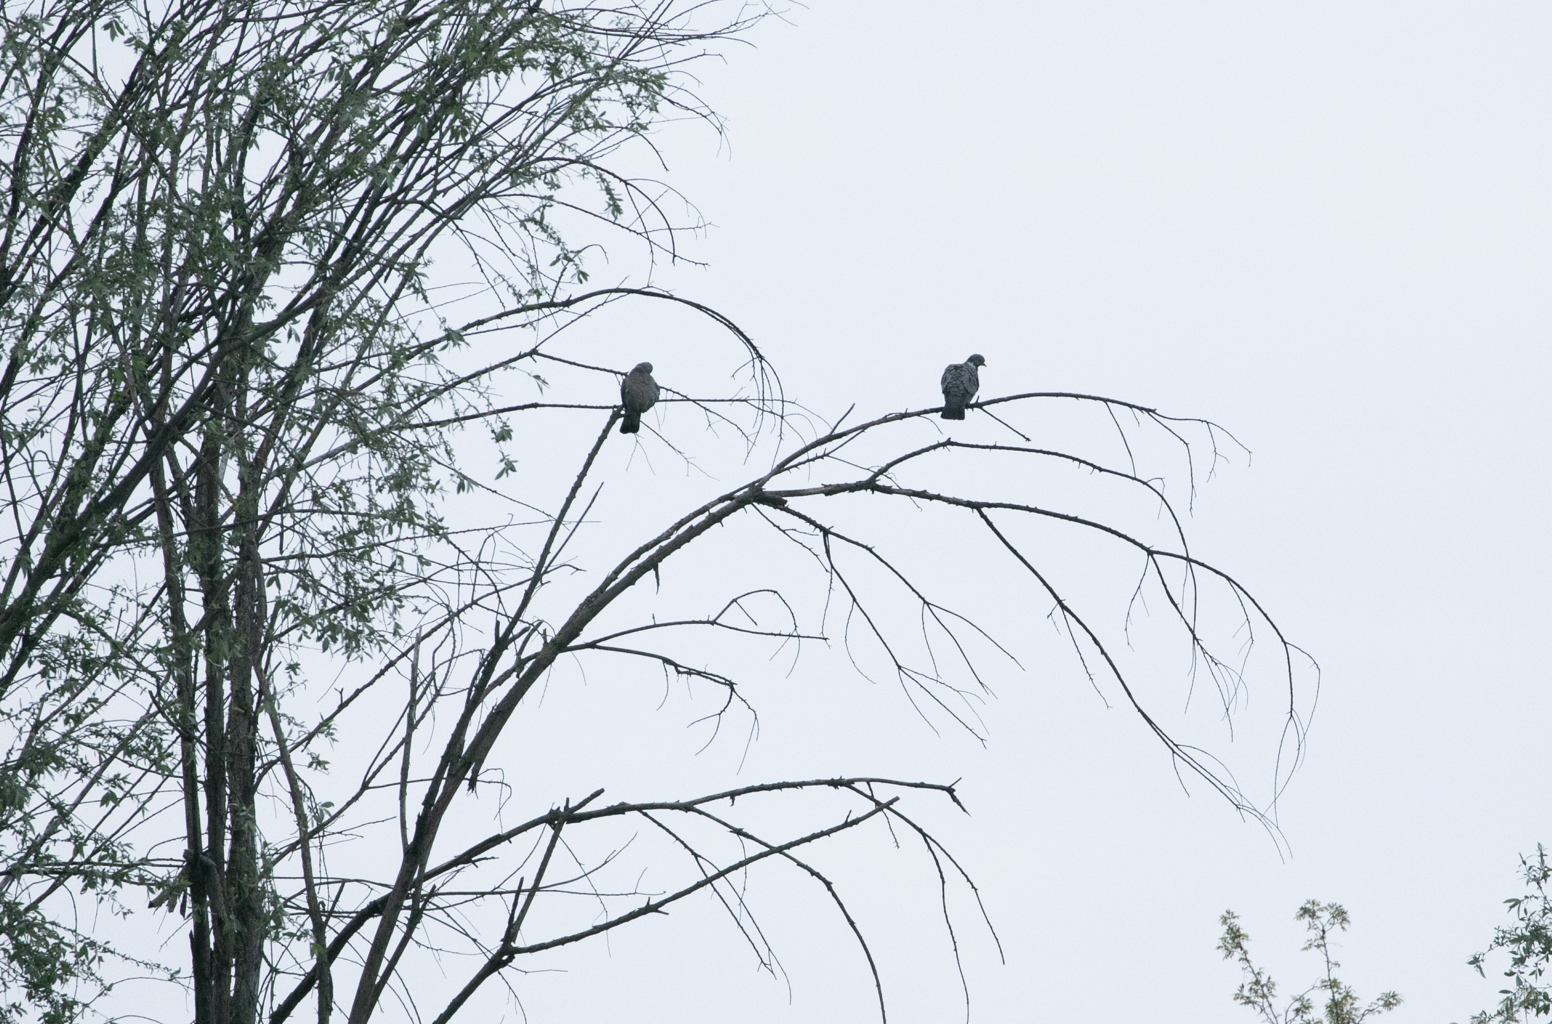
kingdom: Animalia
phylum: Chordata
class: Aves
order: Columbiformes
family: Columbidae
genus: Columba
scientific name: Columba palumbus
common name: Common wood pigeon
